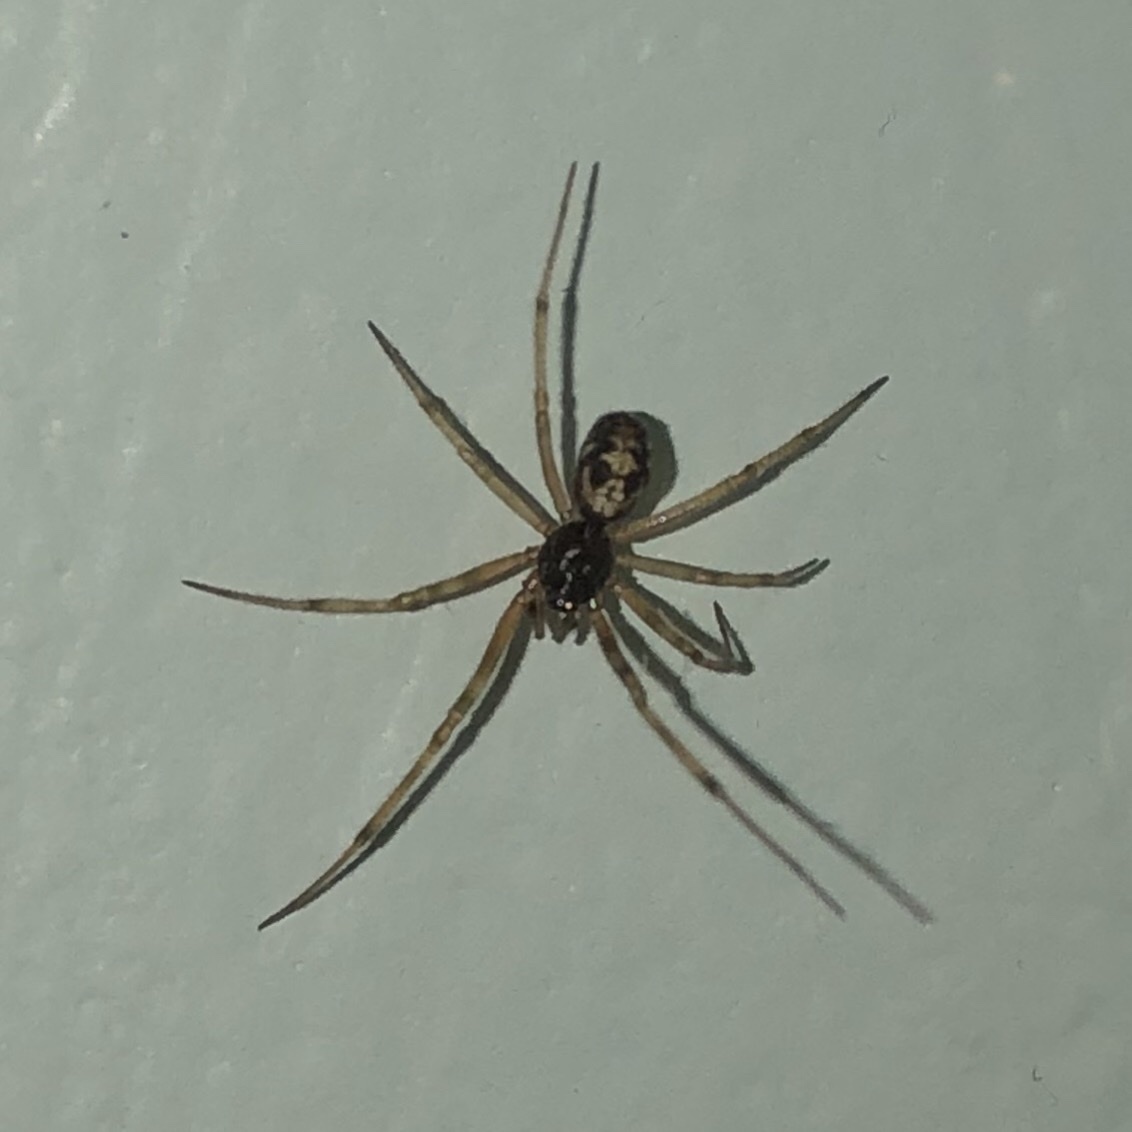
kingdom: Animalia
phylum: Arthropoda
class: Arachnida
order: Araneae
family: Theridiidae
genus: Steatoda
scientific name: Steatoda triangulosa
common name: Triangulate bud spider
